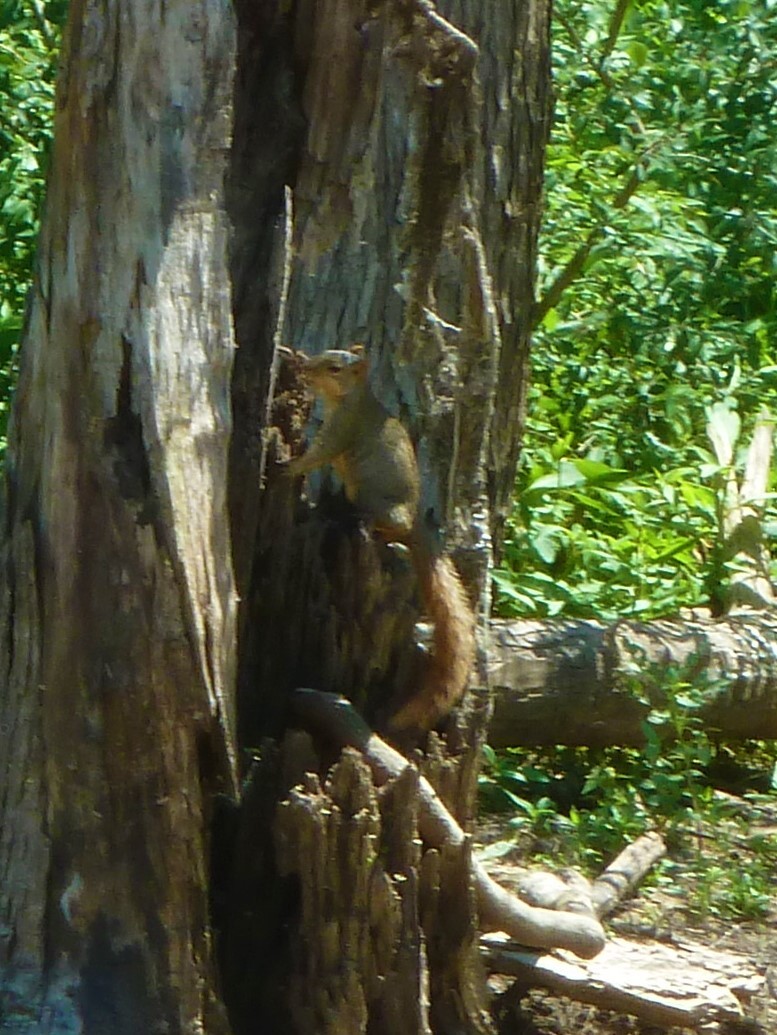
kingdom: Animalia
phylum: Chordata
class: Mammalia
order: Rodentia
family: Sciuridae
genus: Sciurus
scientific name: Sciurus niger
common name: Fox squirrel
